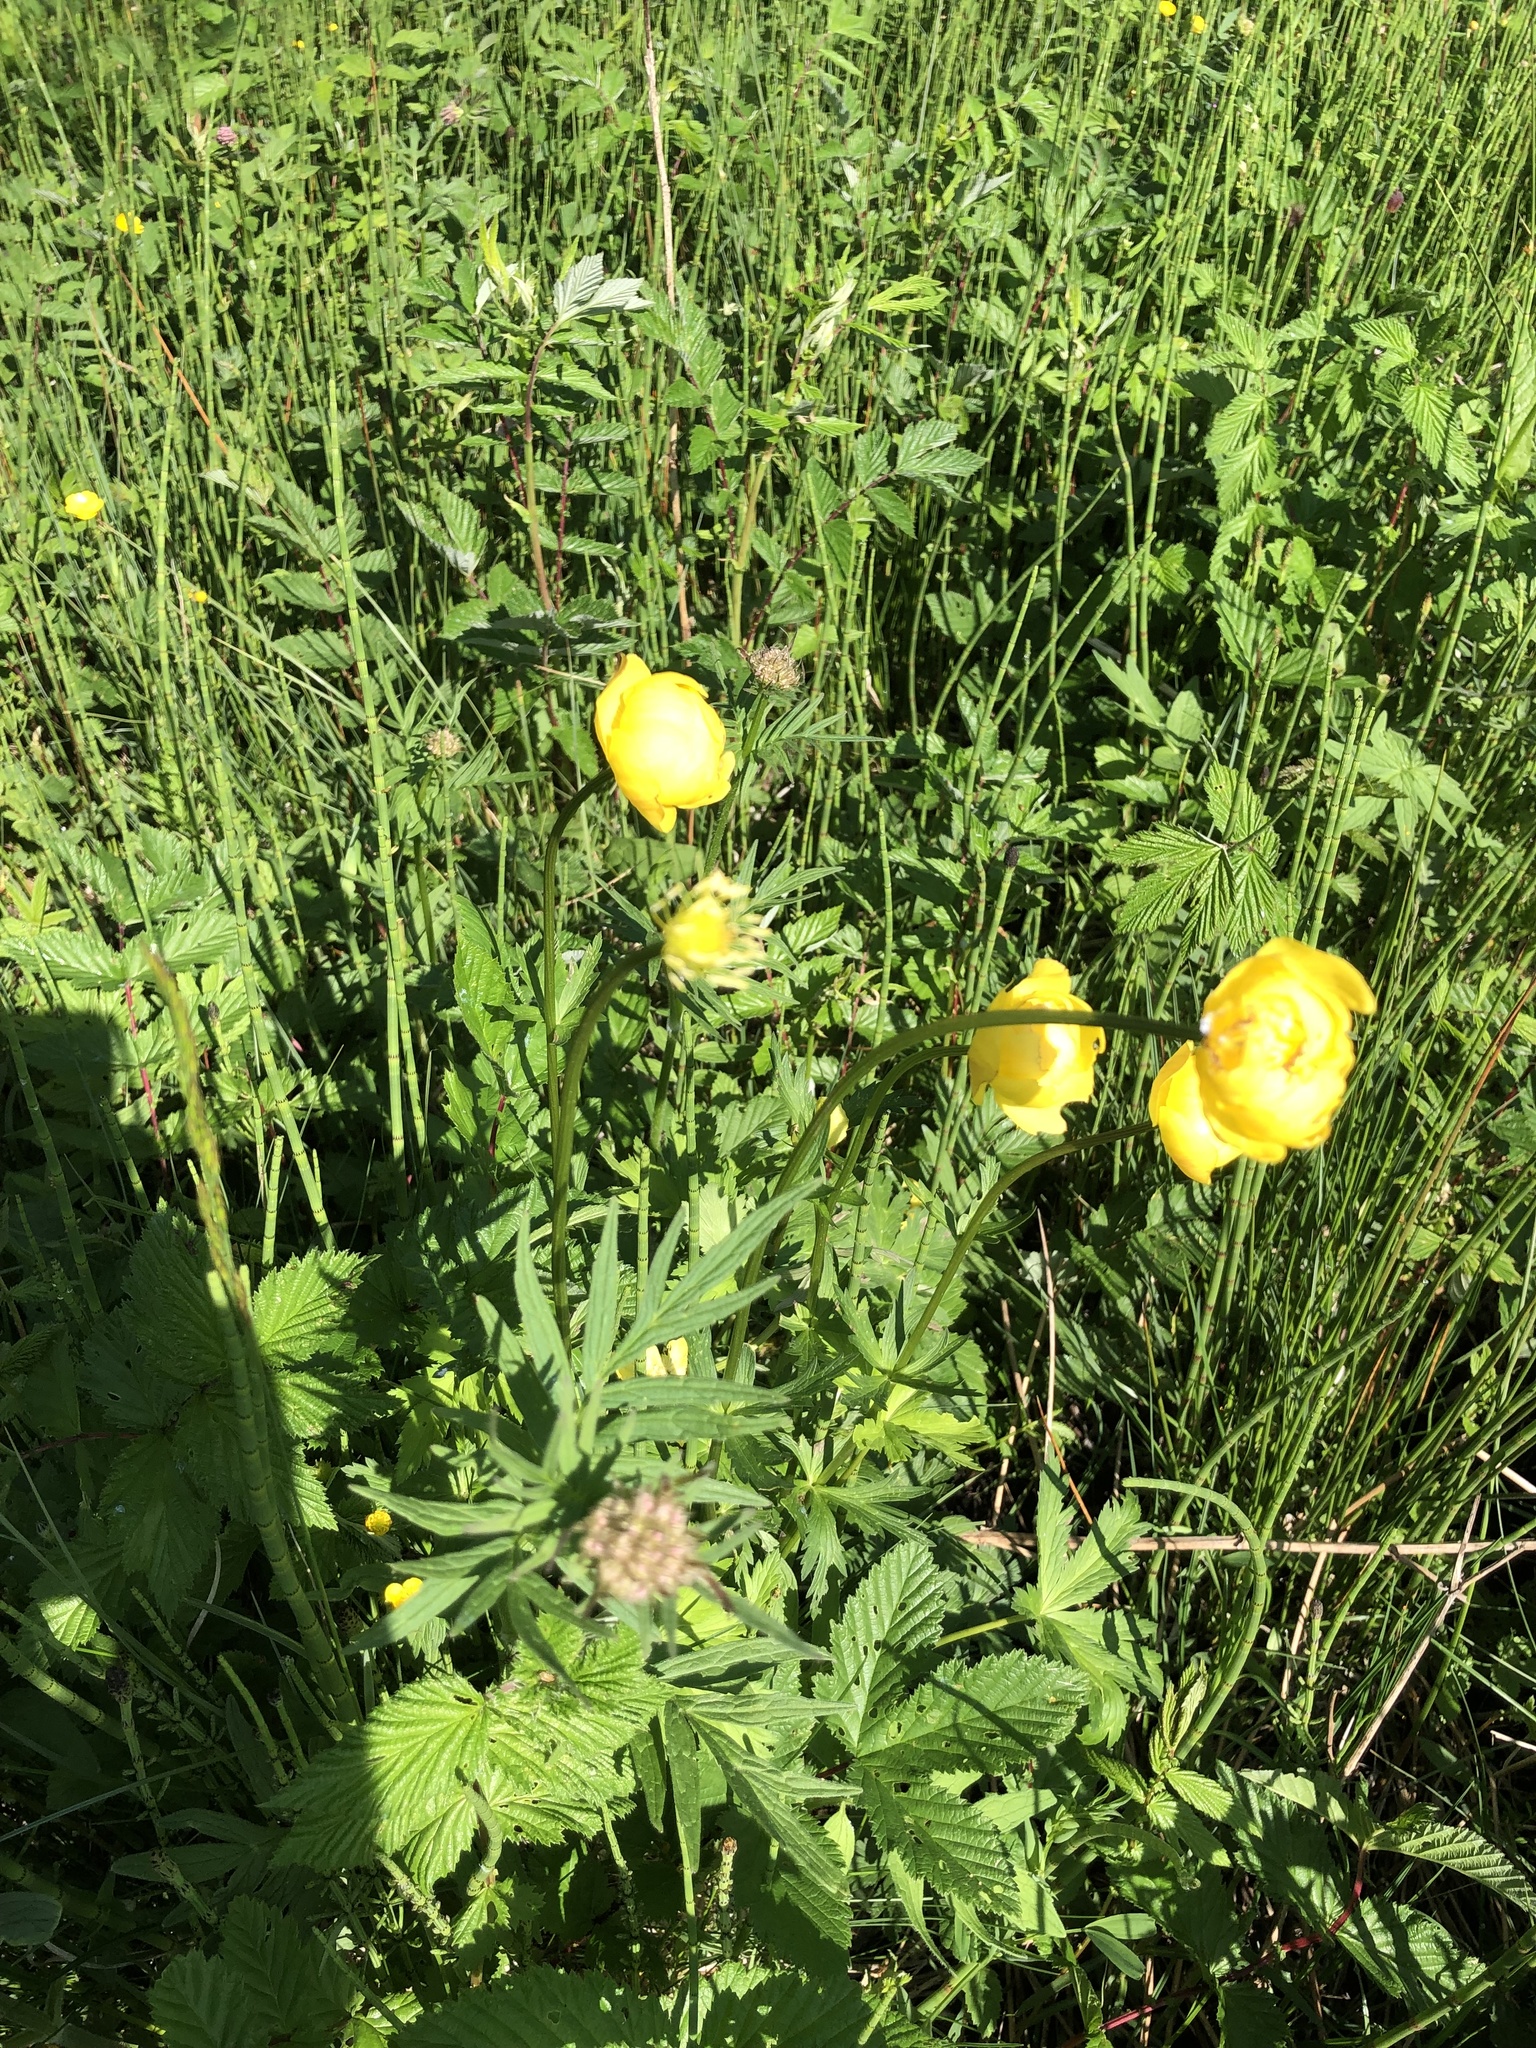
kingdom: Plantae
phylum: Tracheophyta
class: Magnoliopsida
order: Ranunculales
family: Ranunculaceae
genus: Trollius
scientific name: Trollius europaeus
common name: European globeflower
